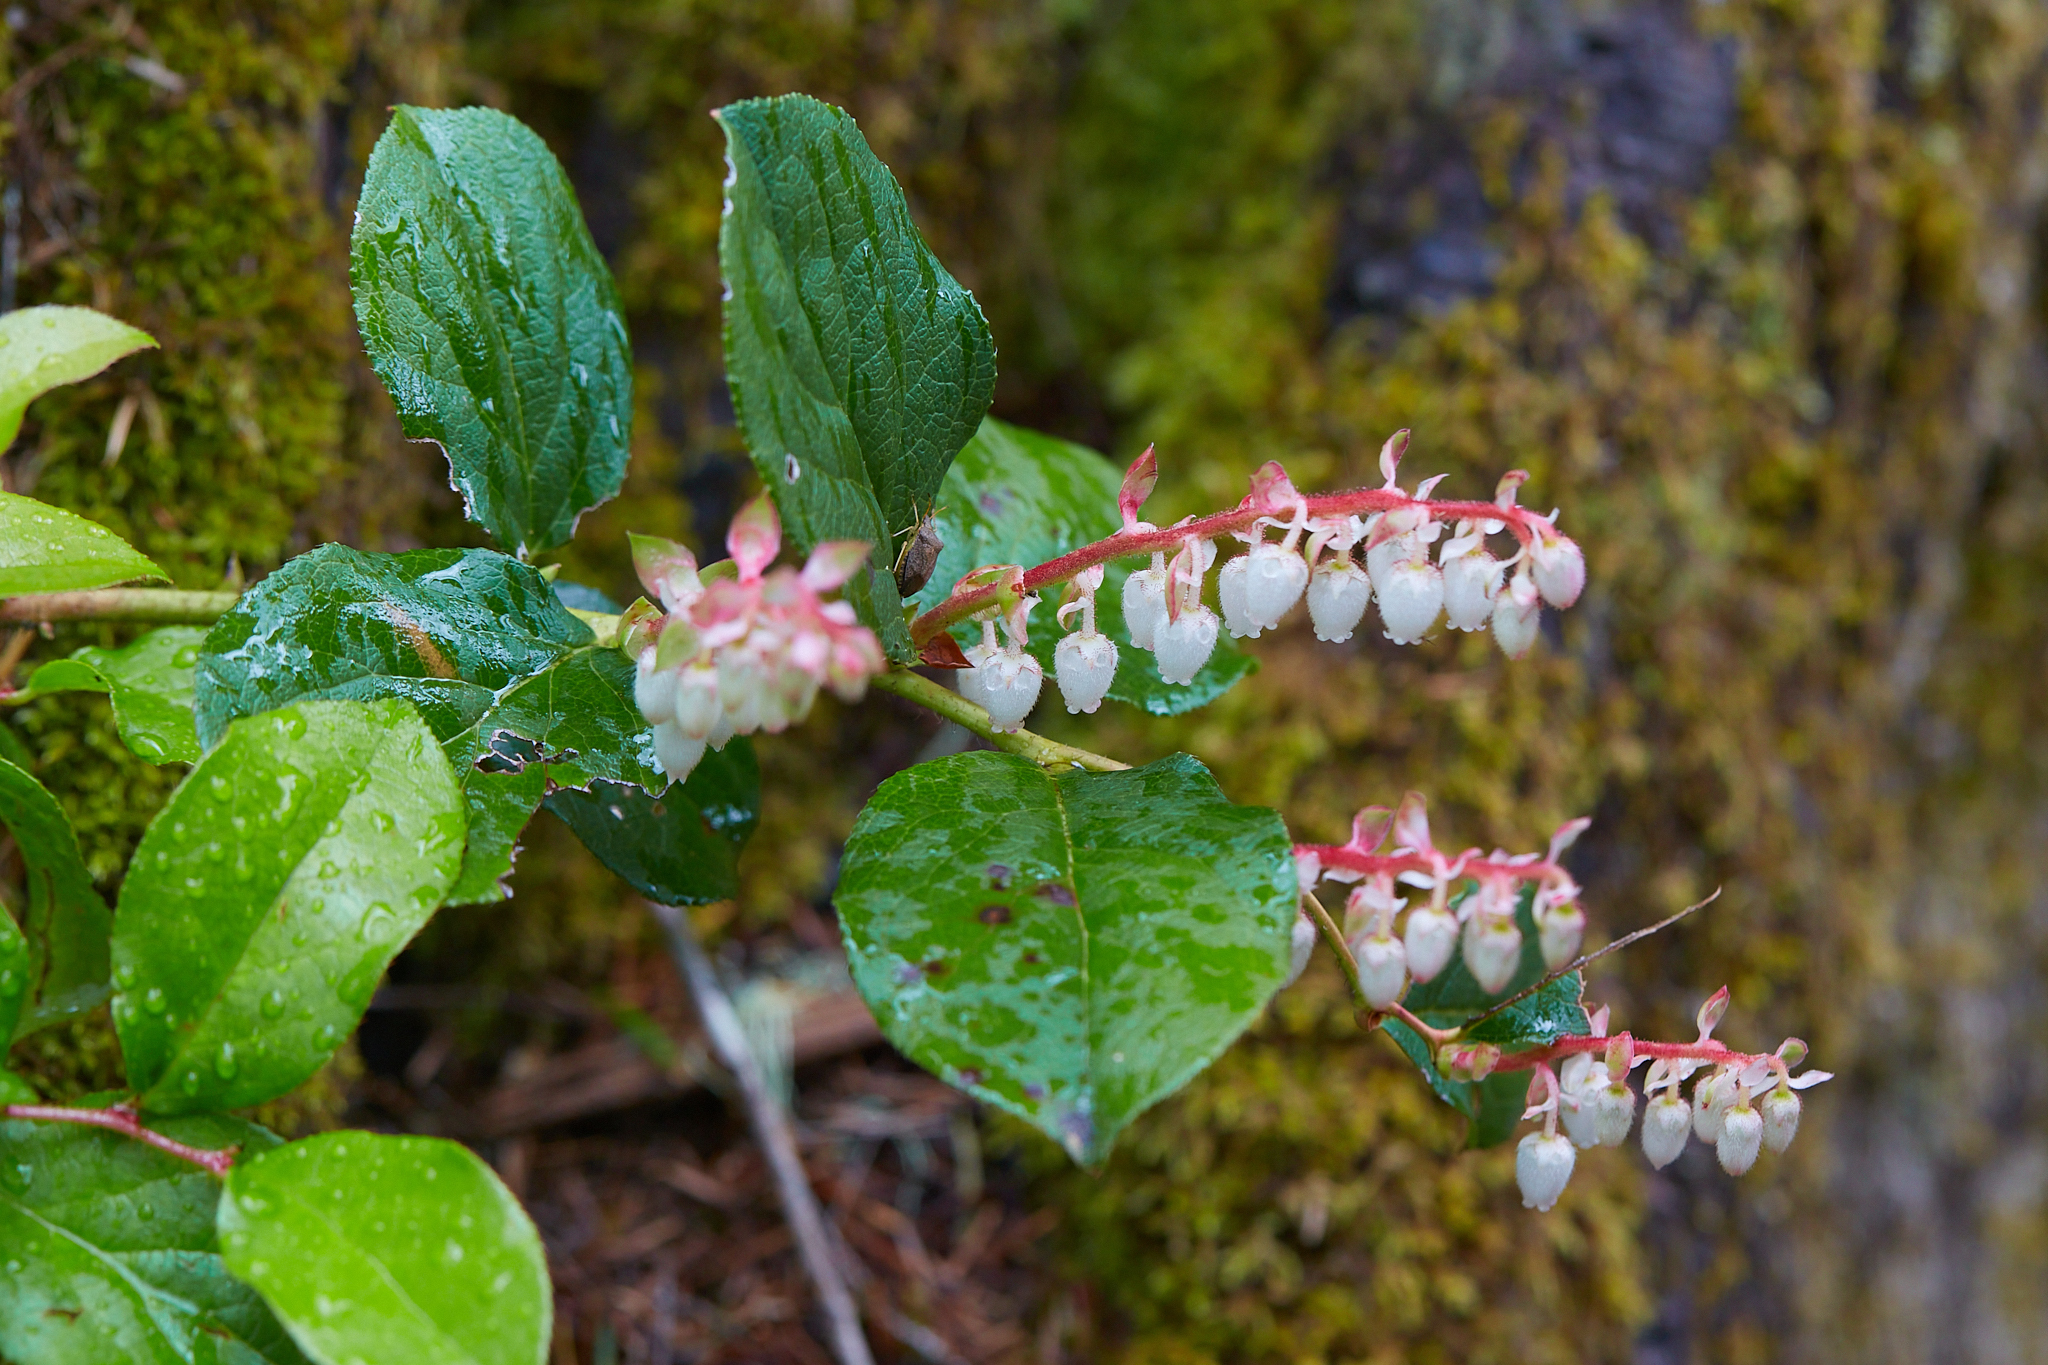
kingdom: Plantae
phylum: Tracheophyta
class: Magnoliopsida
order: Ericales
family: Ericaceae
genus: Gaultheria
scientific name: Gaultheria shallon
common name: Shallon
